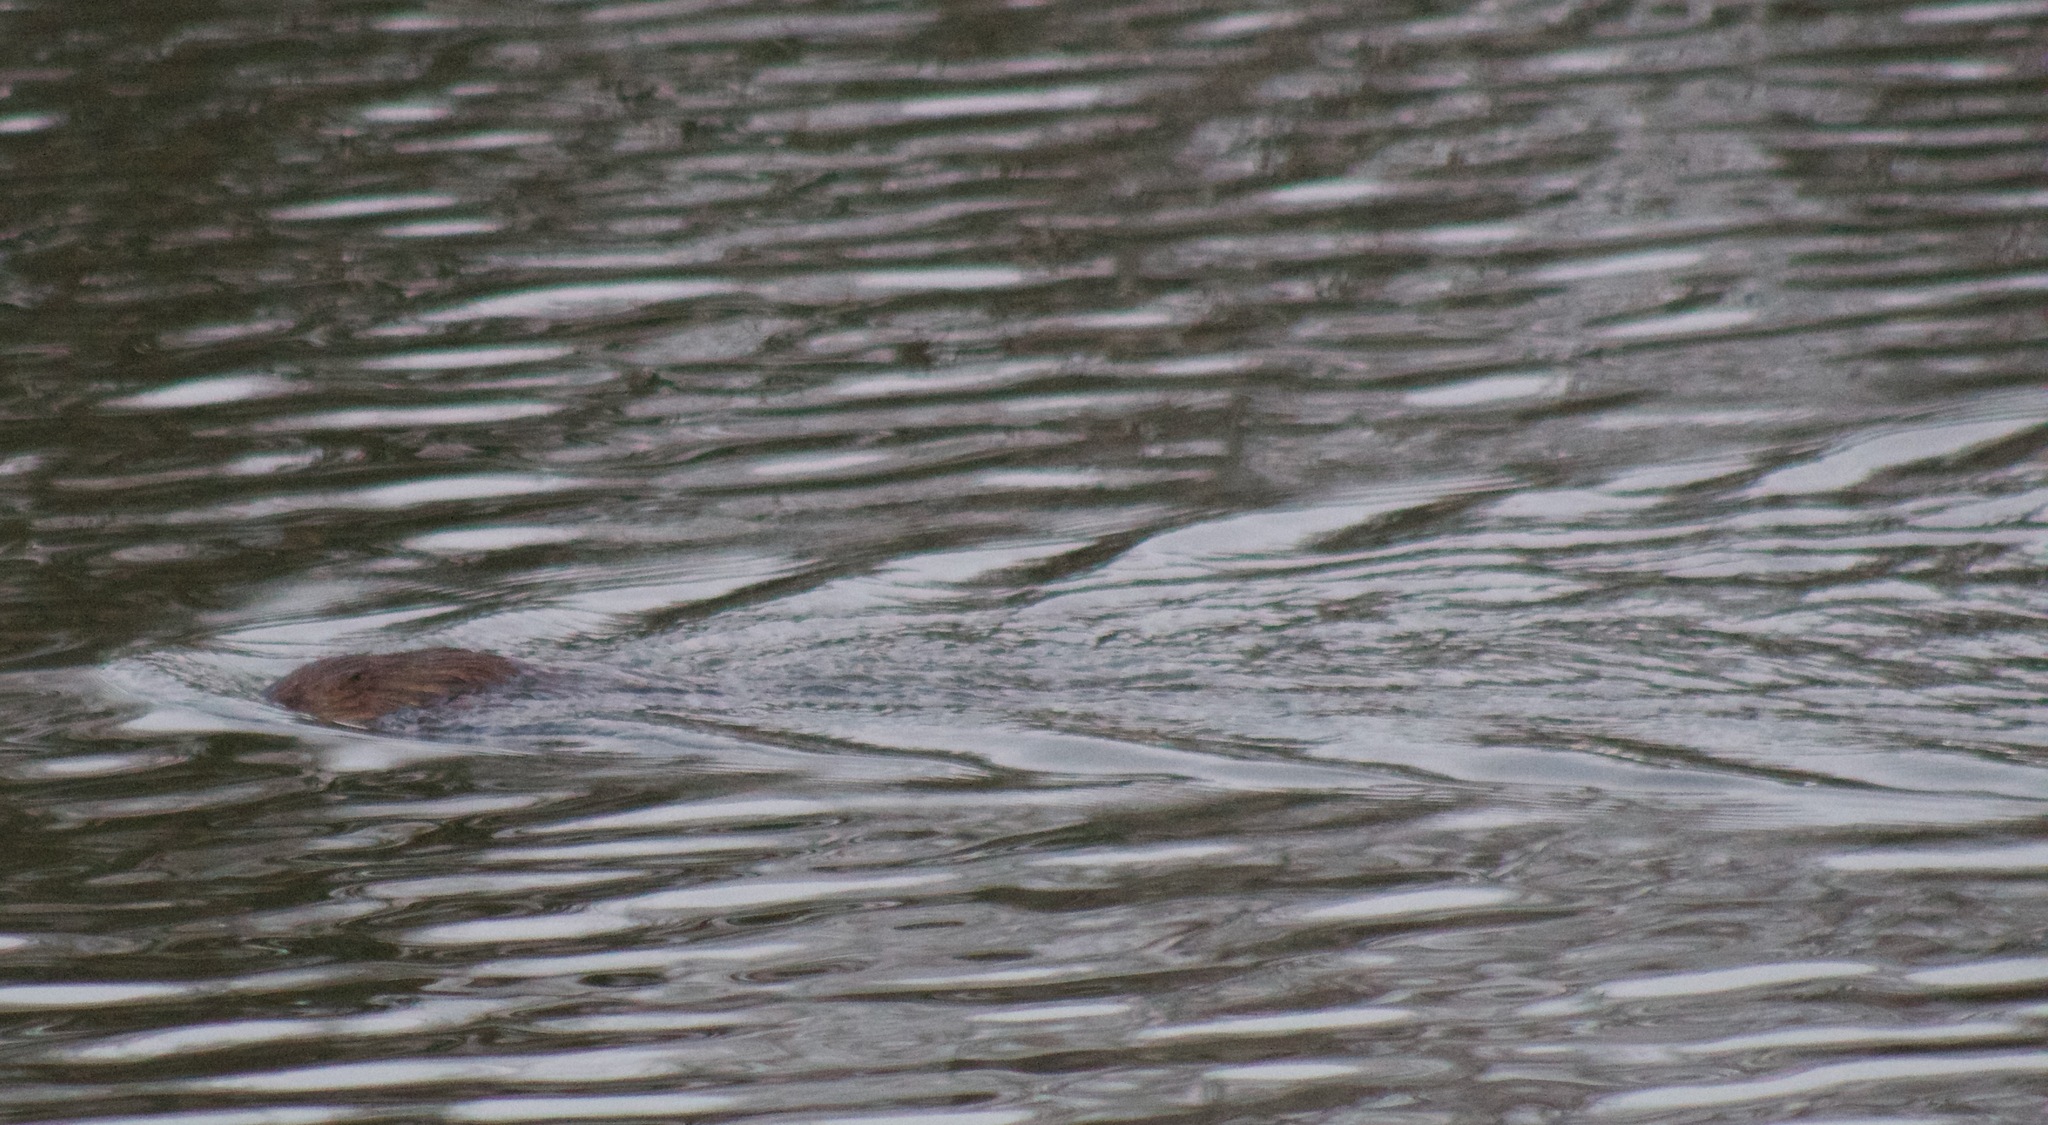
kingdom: Animalia
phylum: Chordata
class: Mammalia
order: Rodentia
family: Cricetidae
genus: Ondatra
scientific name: Ondatra zibethicus
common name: Muskrat
